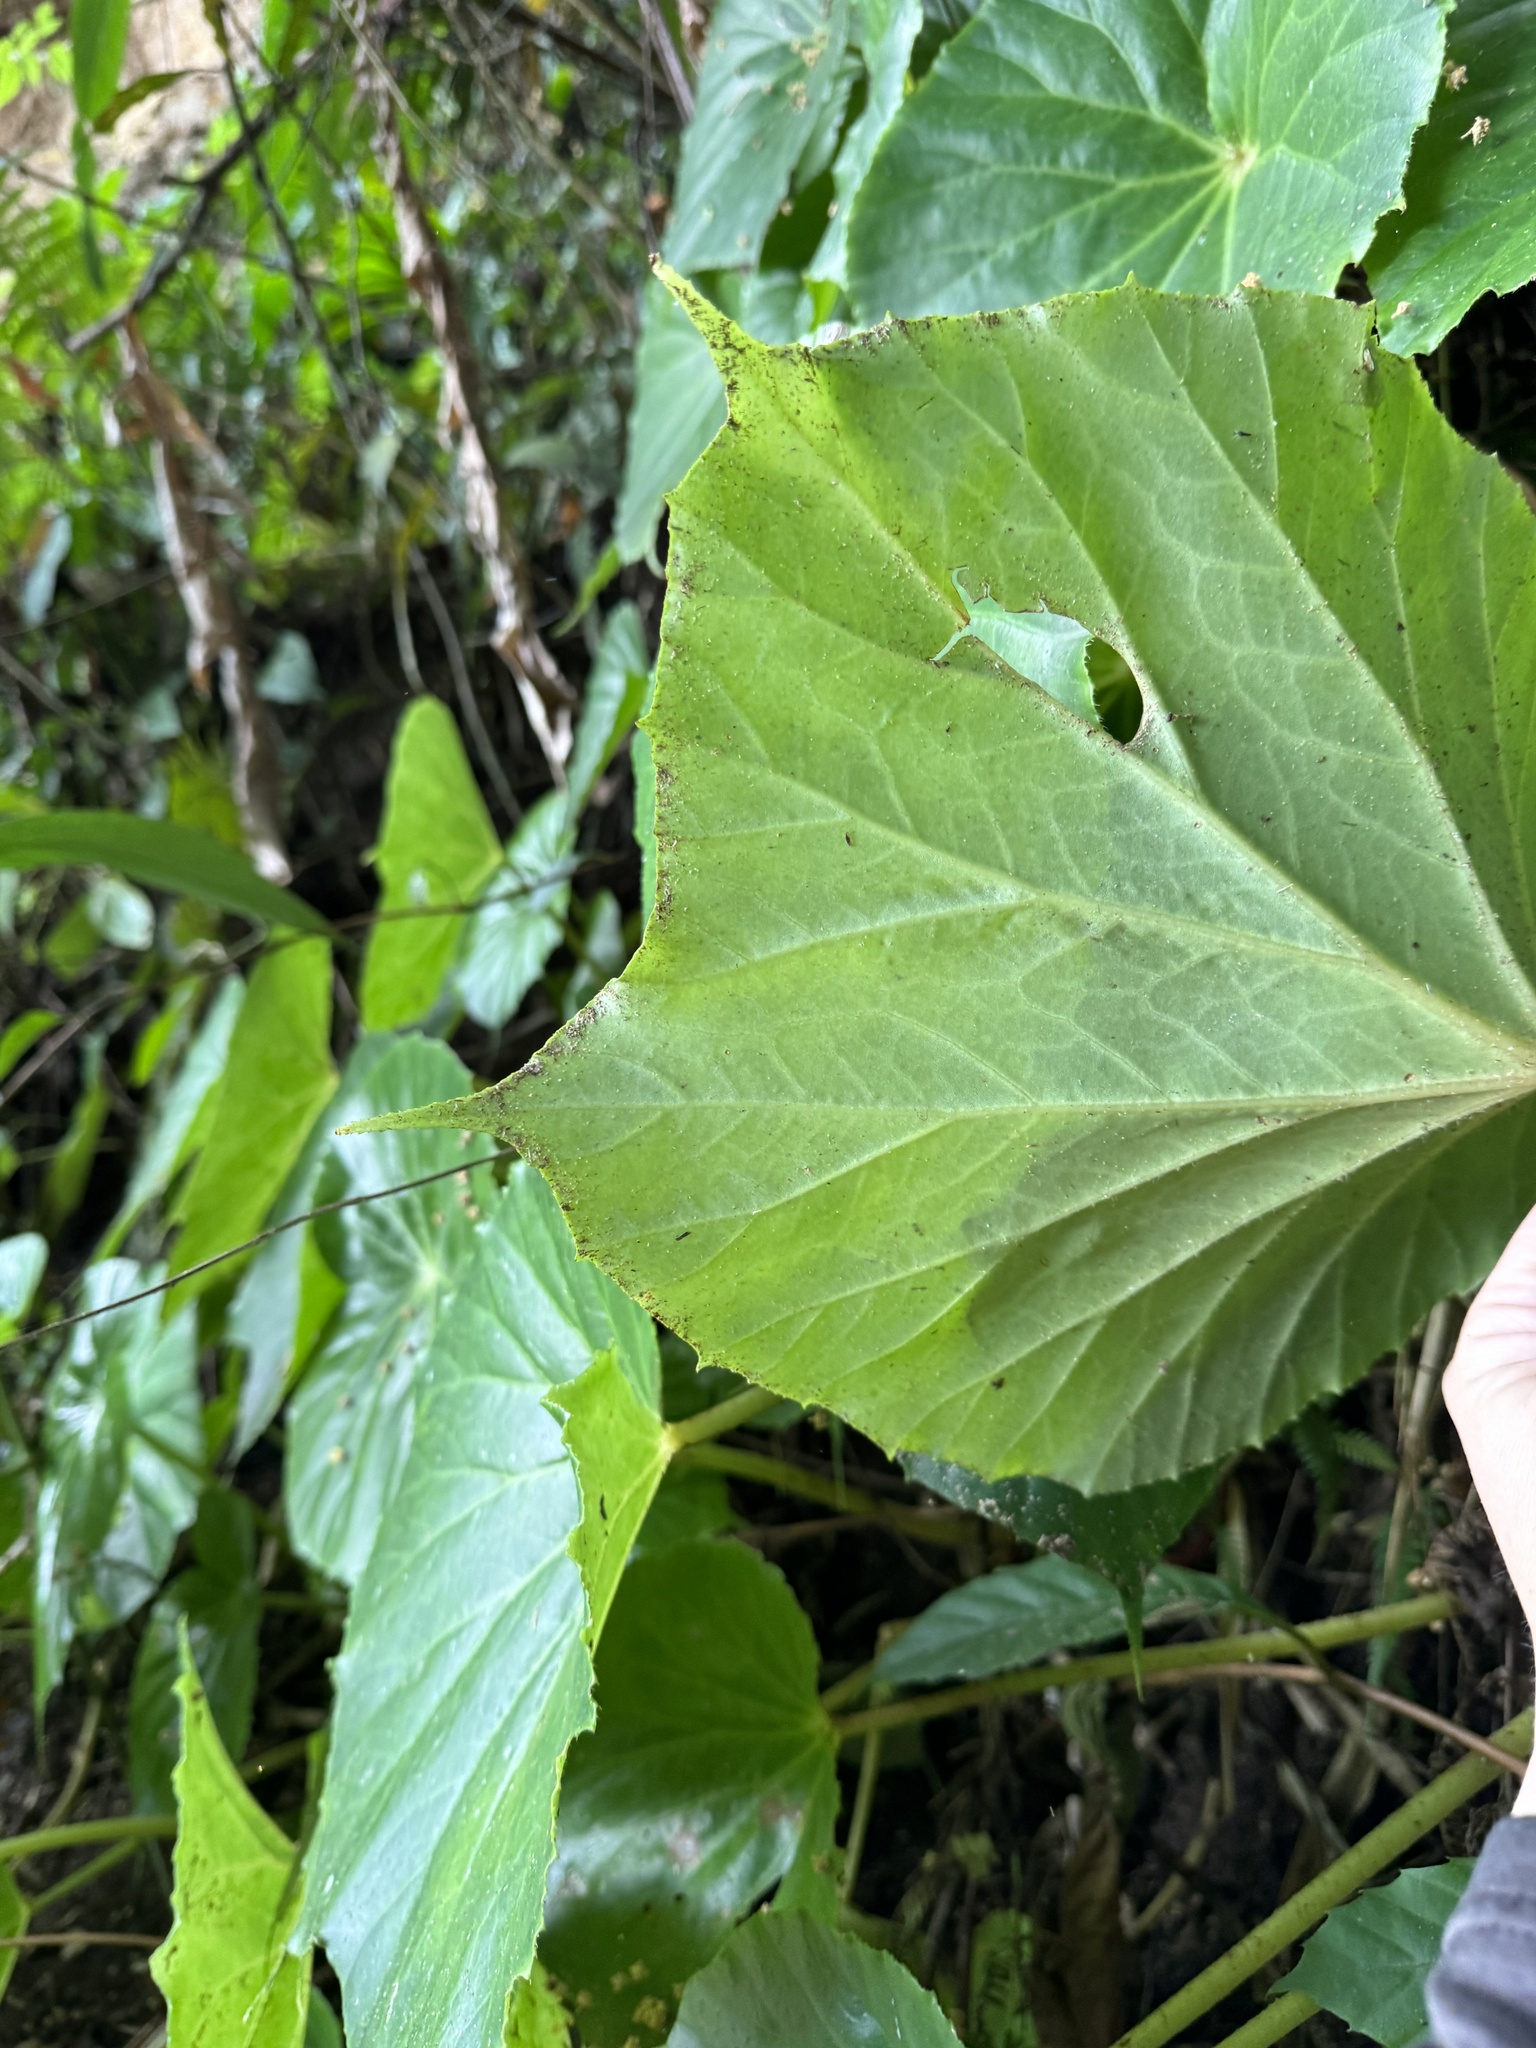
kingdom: Plantae
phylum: Tracheophyta
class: Magnoliopsida
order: Cucurbitales
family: Begoniaceae
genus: Begonia
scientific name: Begonia urophylla
